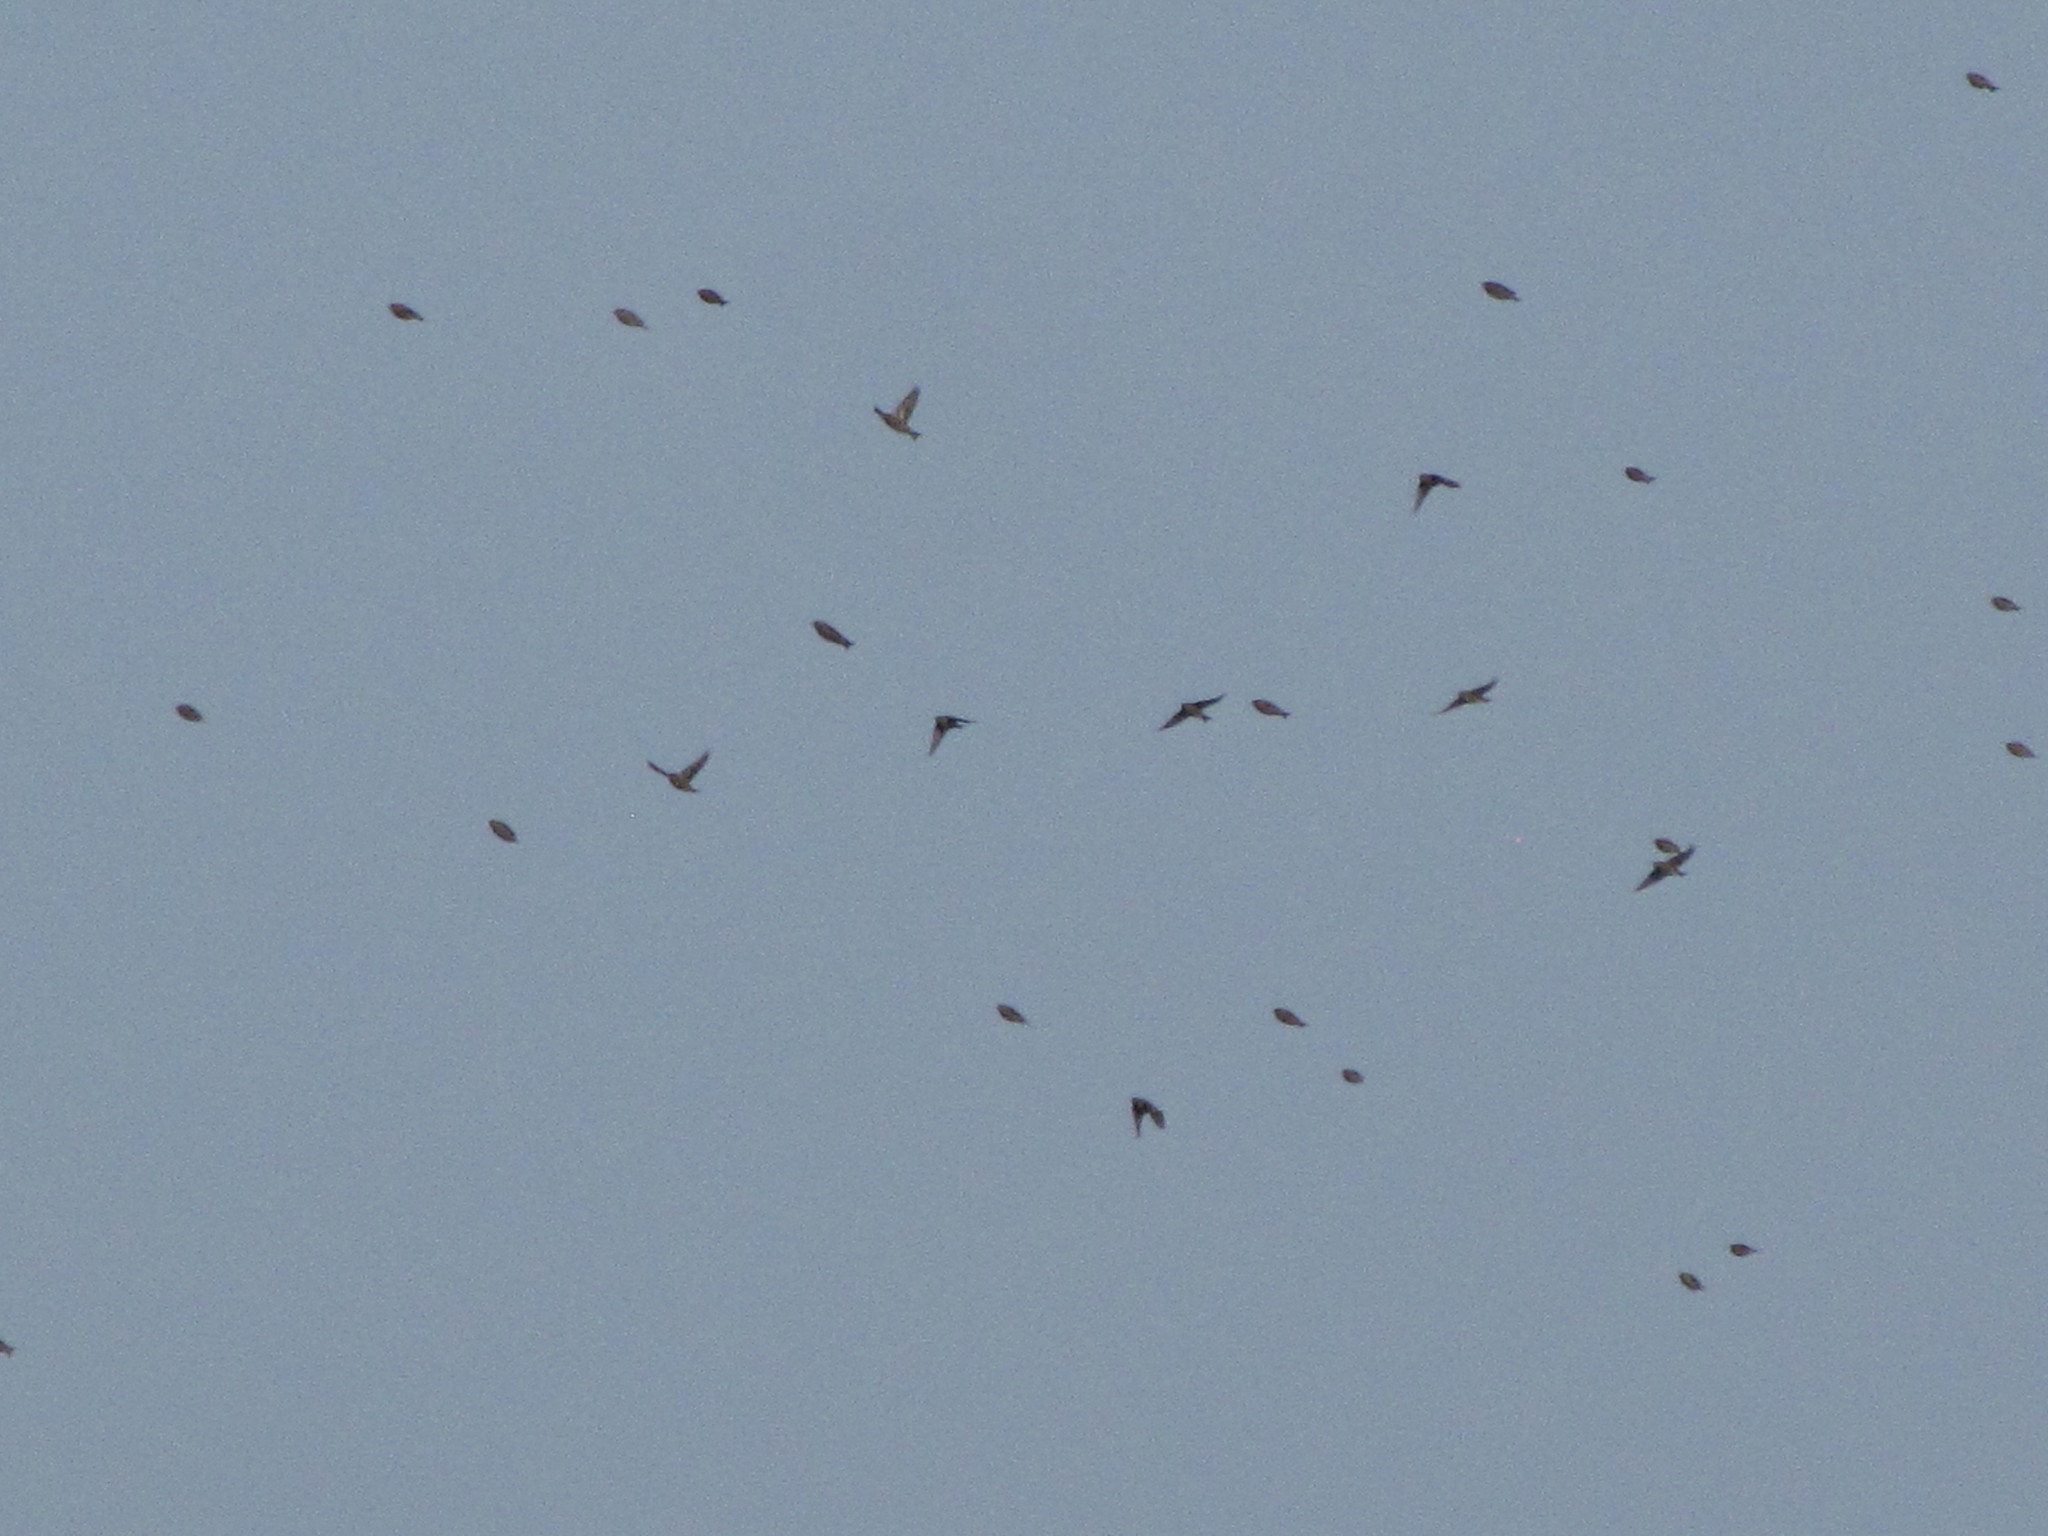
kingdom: Animalia
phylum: Chordata
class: Aves
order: Passeriformes
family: Fringillidae
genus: Spinus
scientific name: Spinus pinus
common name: Pine siskin
